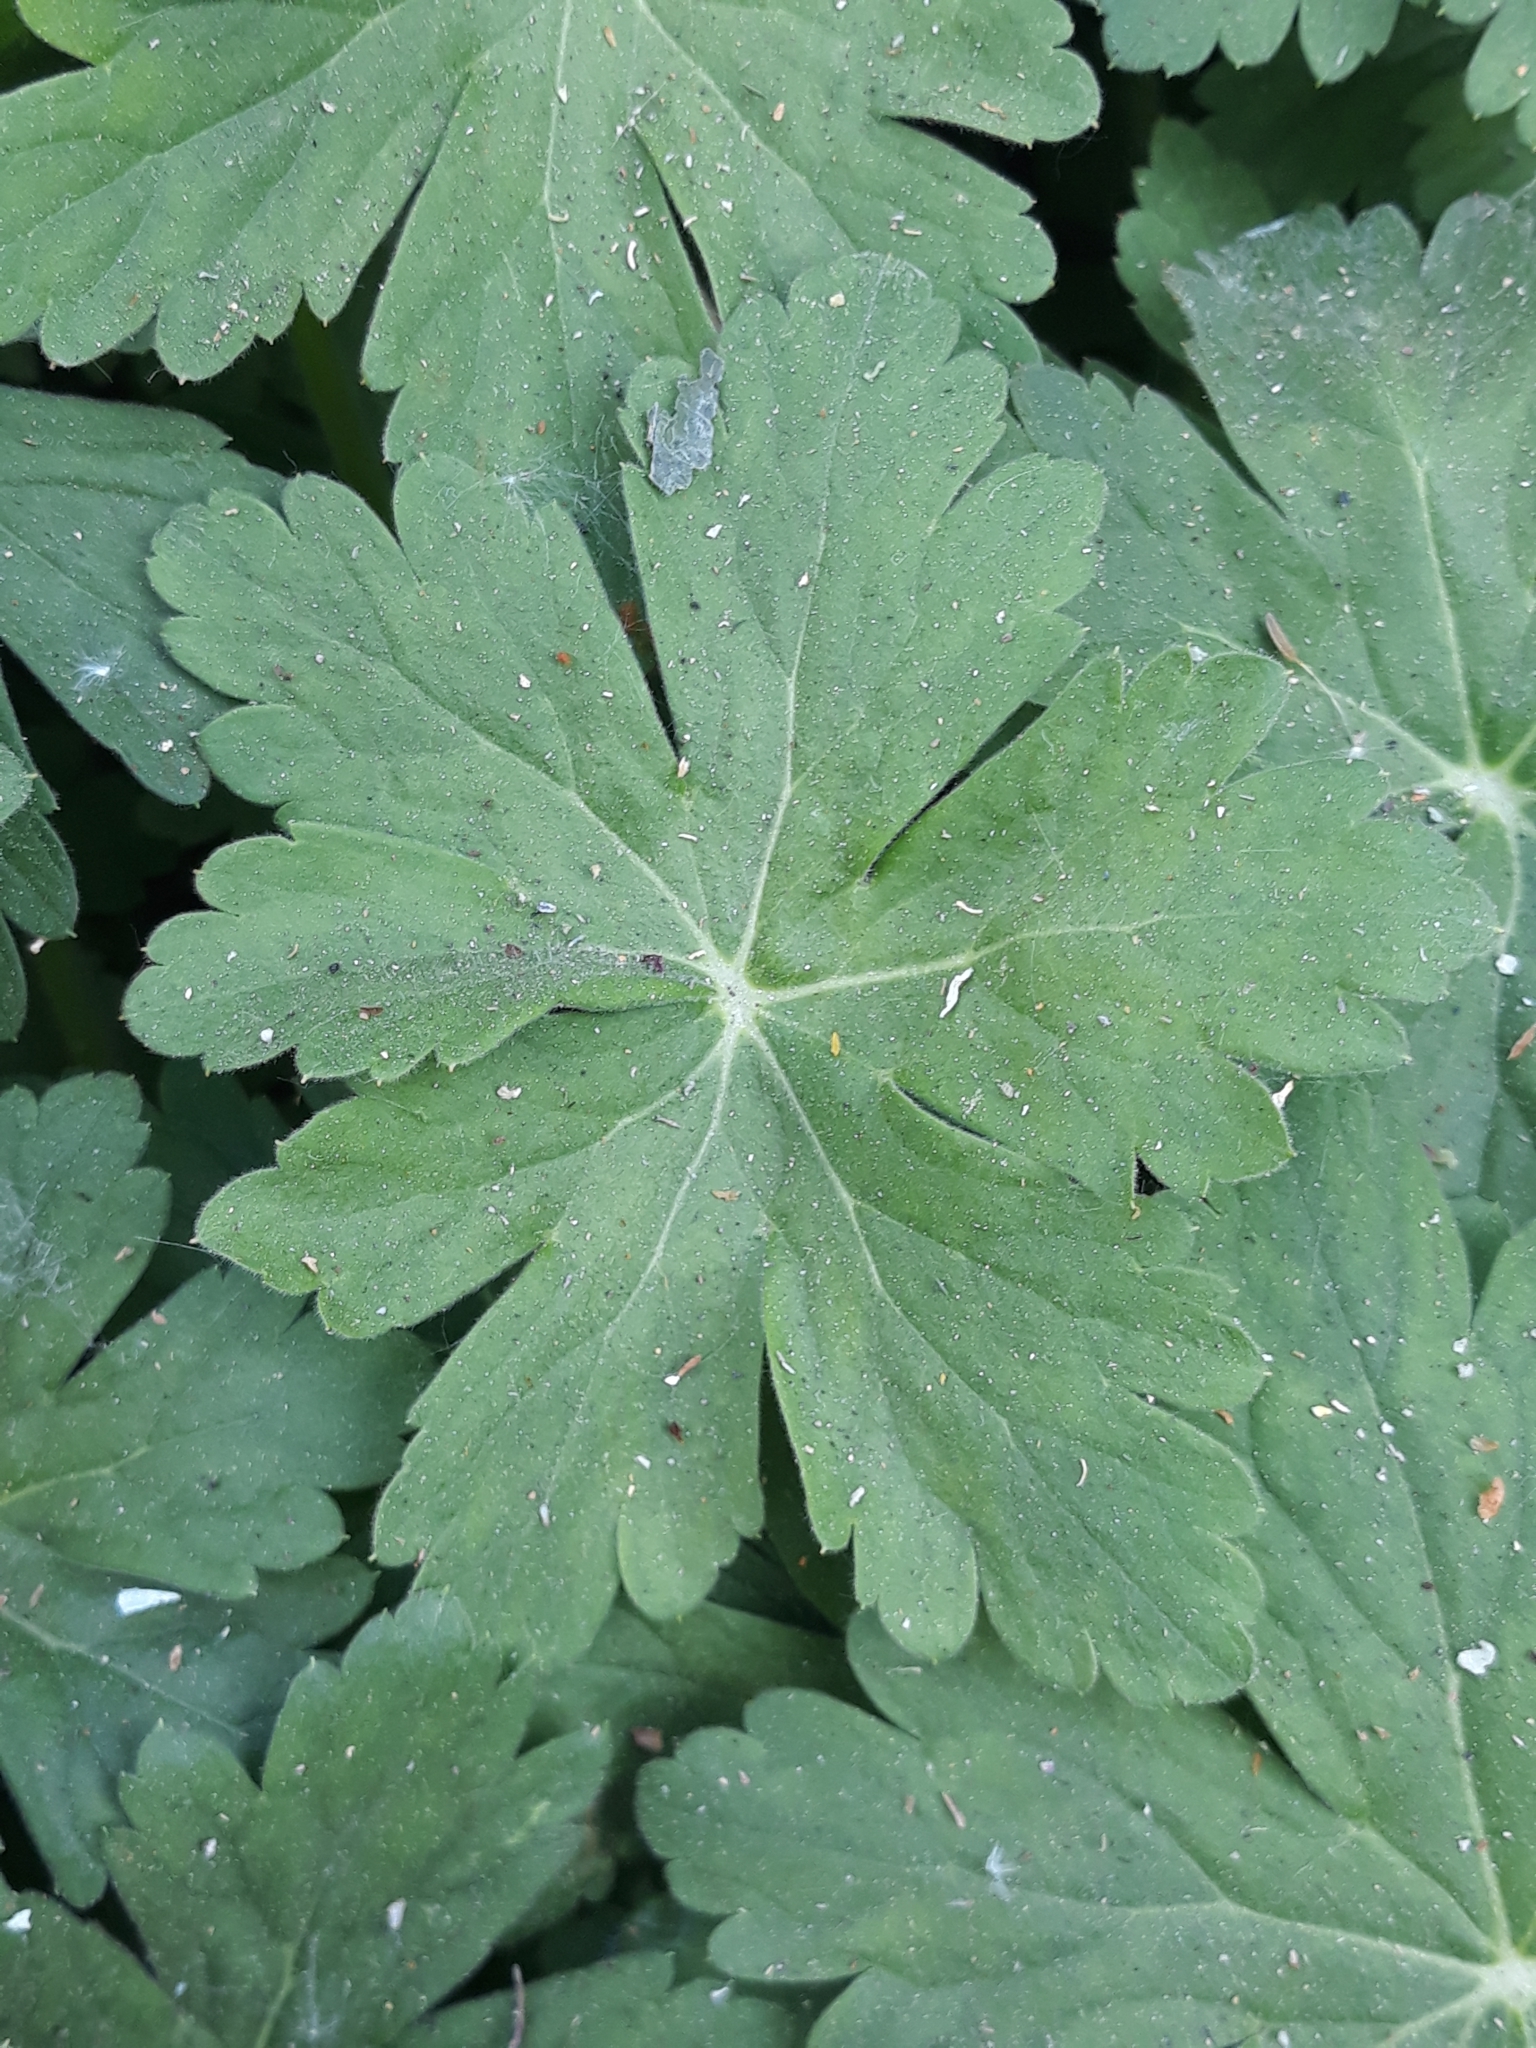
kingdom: Plantae
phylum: Tracheophyta
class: Magnoliopsida
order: Geraniales
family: Geraniaceae
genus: Geranium
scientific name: Geranium macrorrhizum
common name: Rock crane's-bill
